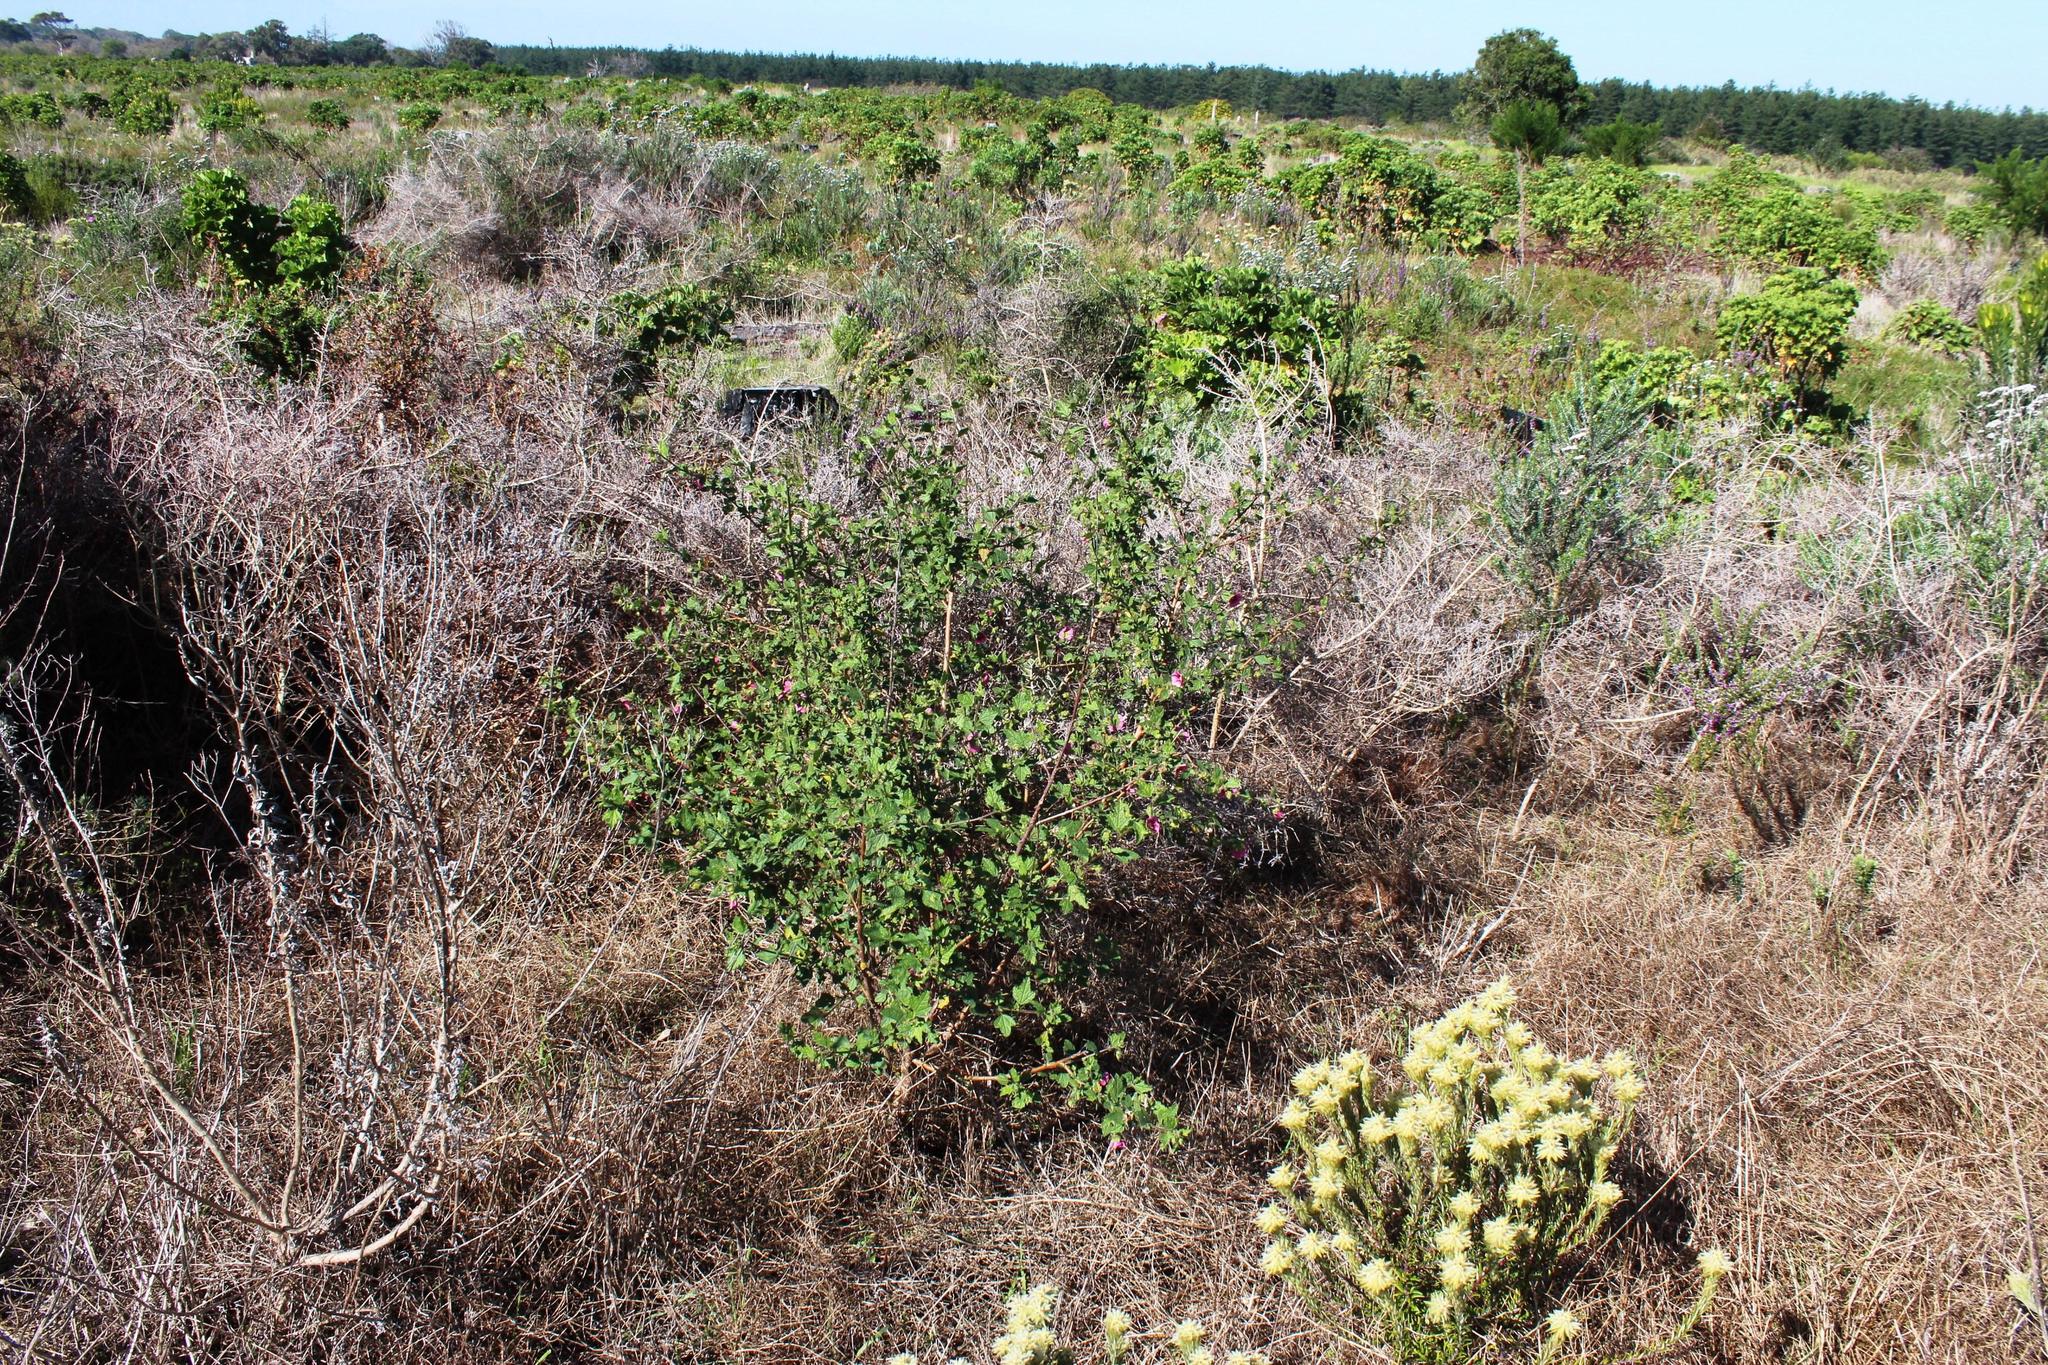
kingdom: Plantae
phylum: Tracheophyta
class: Magnoliopsida
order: Malvales
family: Malvaceae
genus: Anisodontea
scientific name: Anisodontea scabrosa
